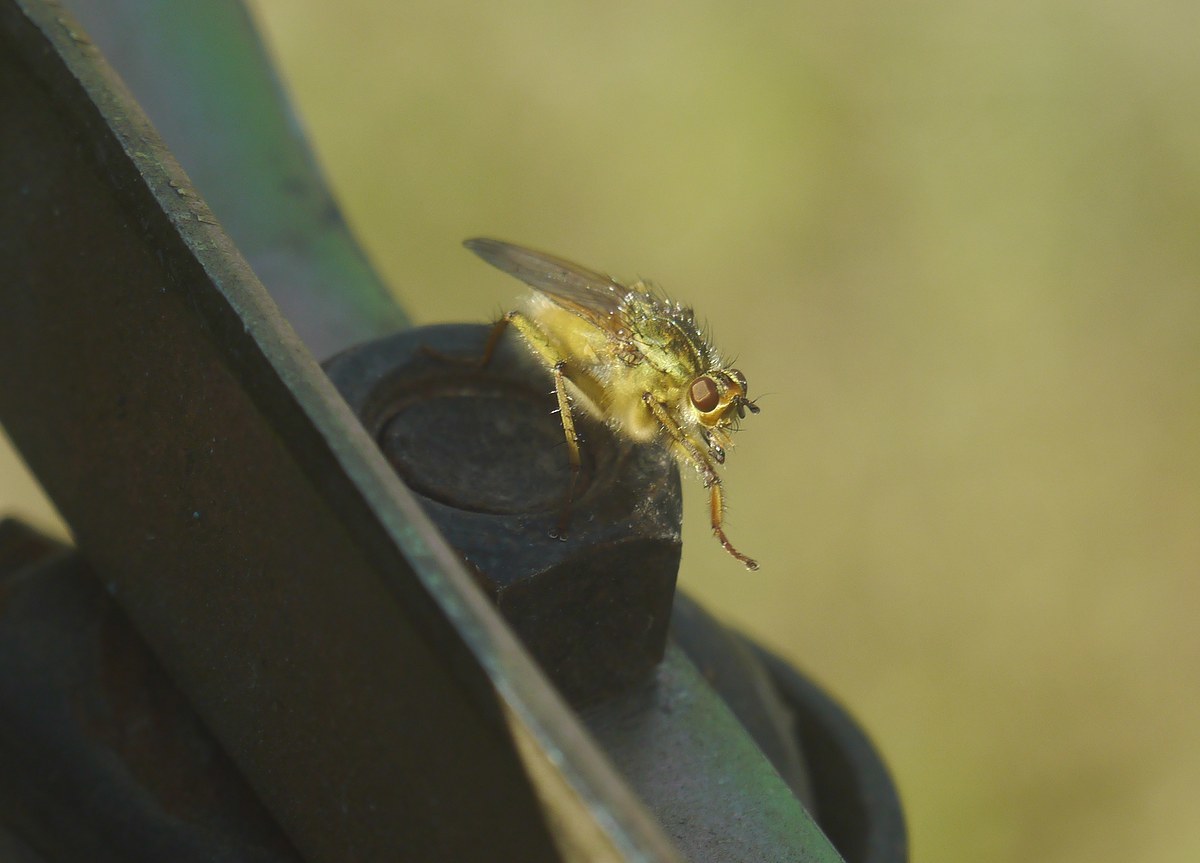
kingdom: Animalia
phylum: Arthropoda
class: Insecta
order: Diptera
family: Scathophagidae
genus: Scathophaga
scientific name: Scathophaga stercoraria
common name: Yellow dung fly
